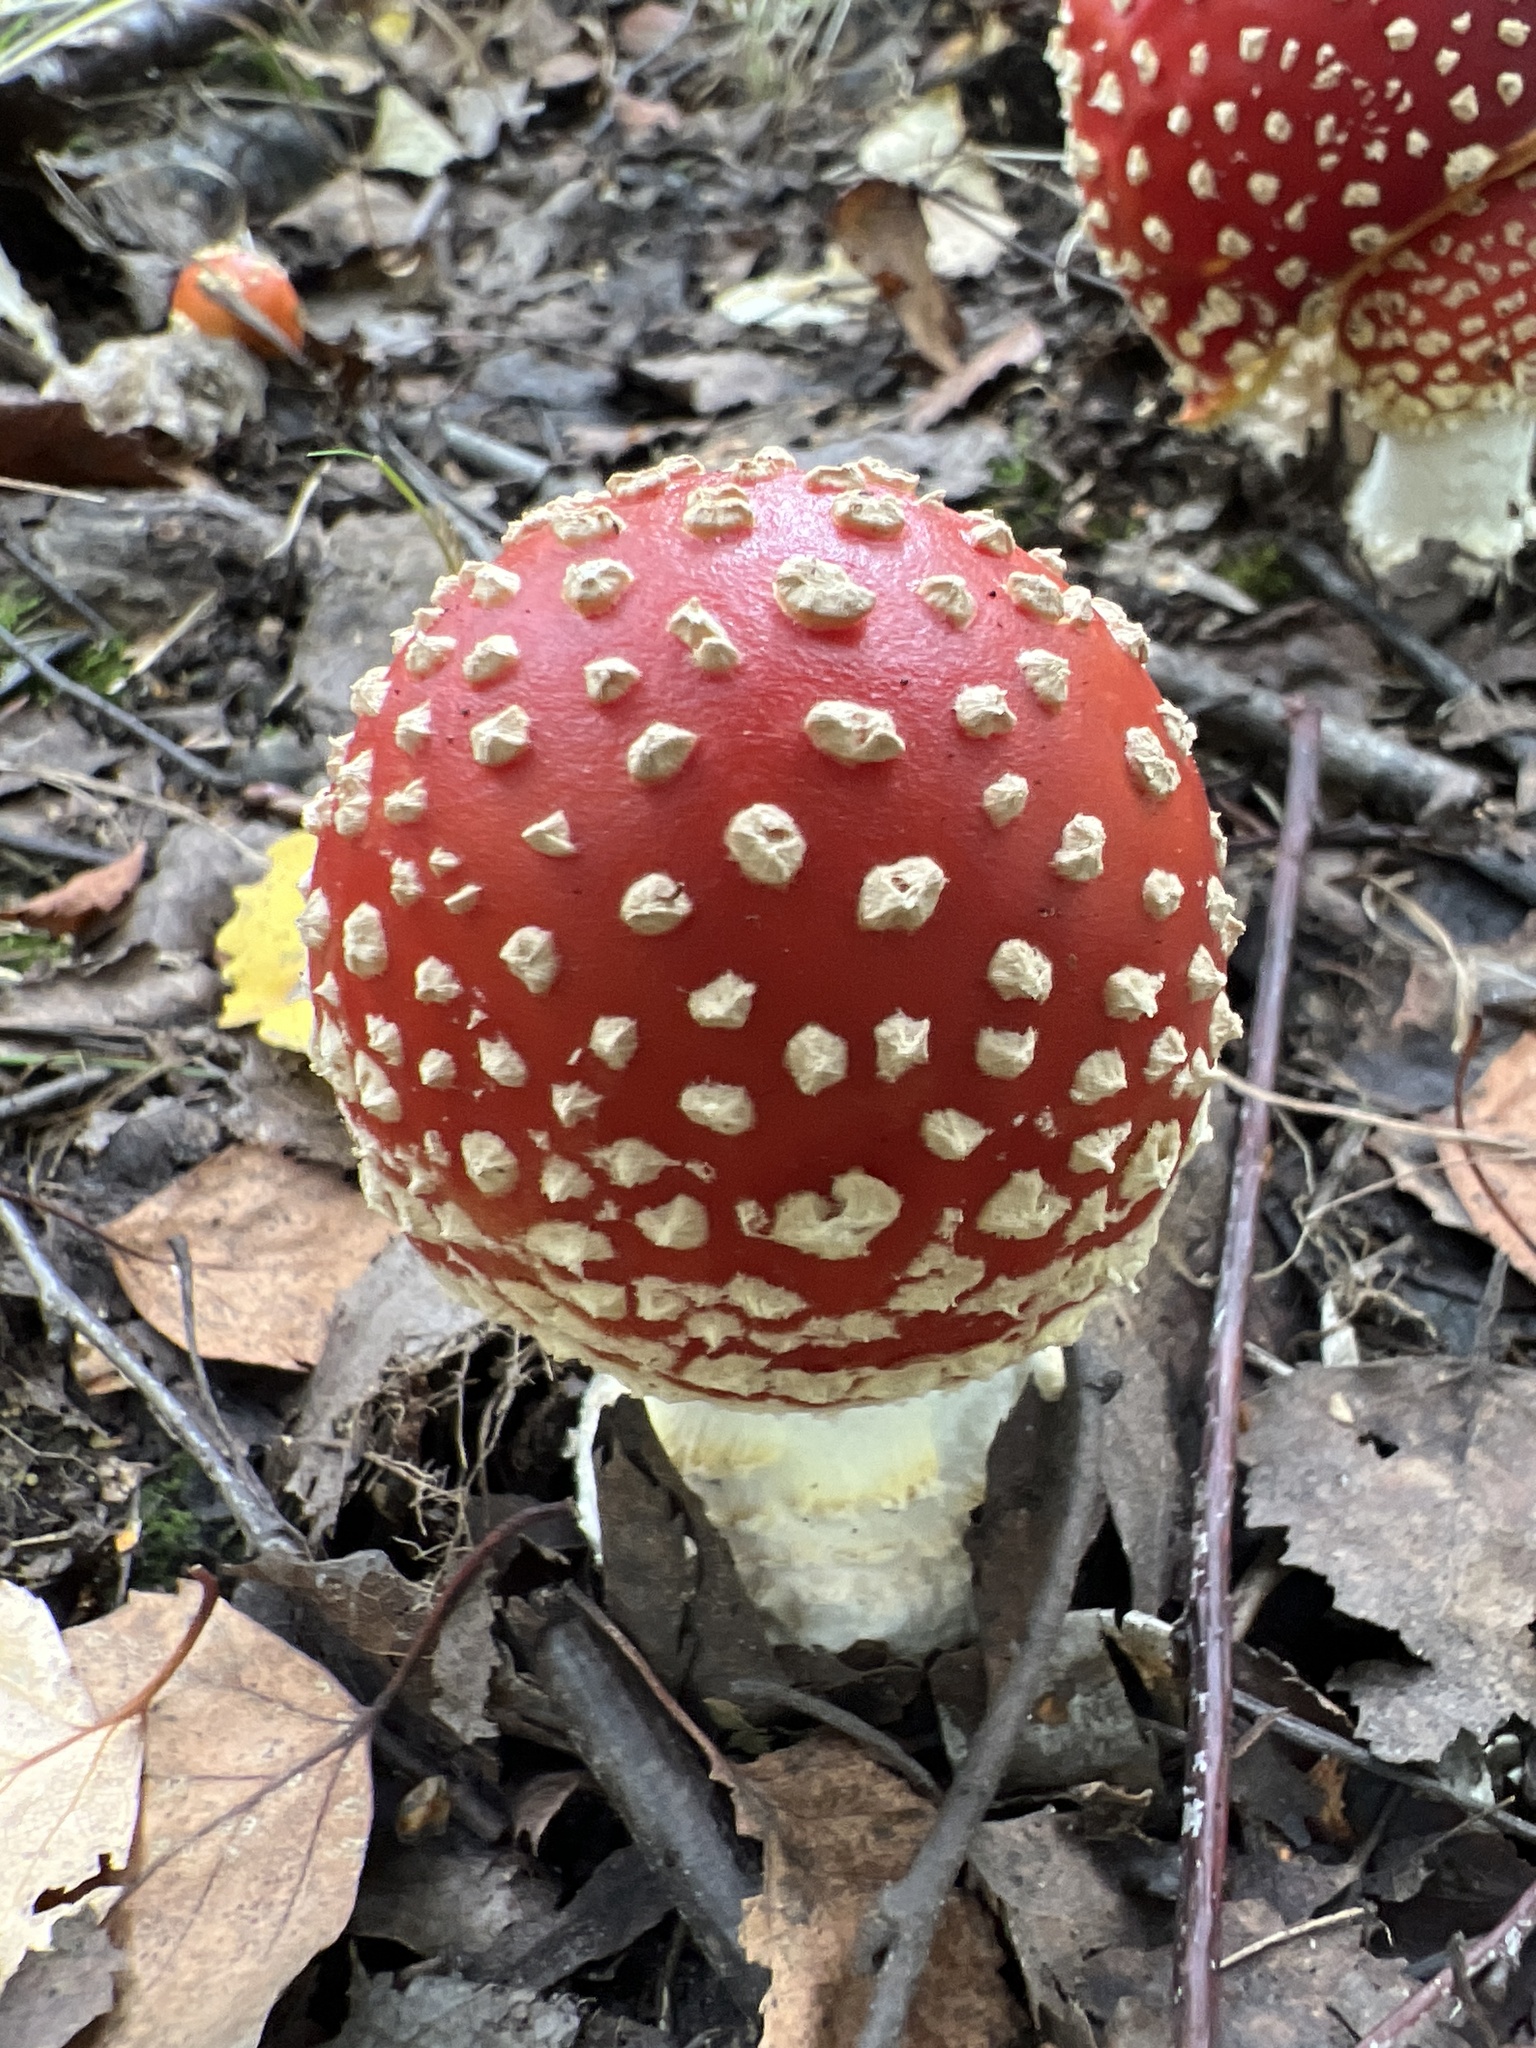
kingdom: Fungi
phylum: Basidiomycota
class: Agaricomycetes
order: Agaricales
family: Amanitaceae
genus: Amanita
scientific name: Amanita muscaria
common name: Fly agaric
